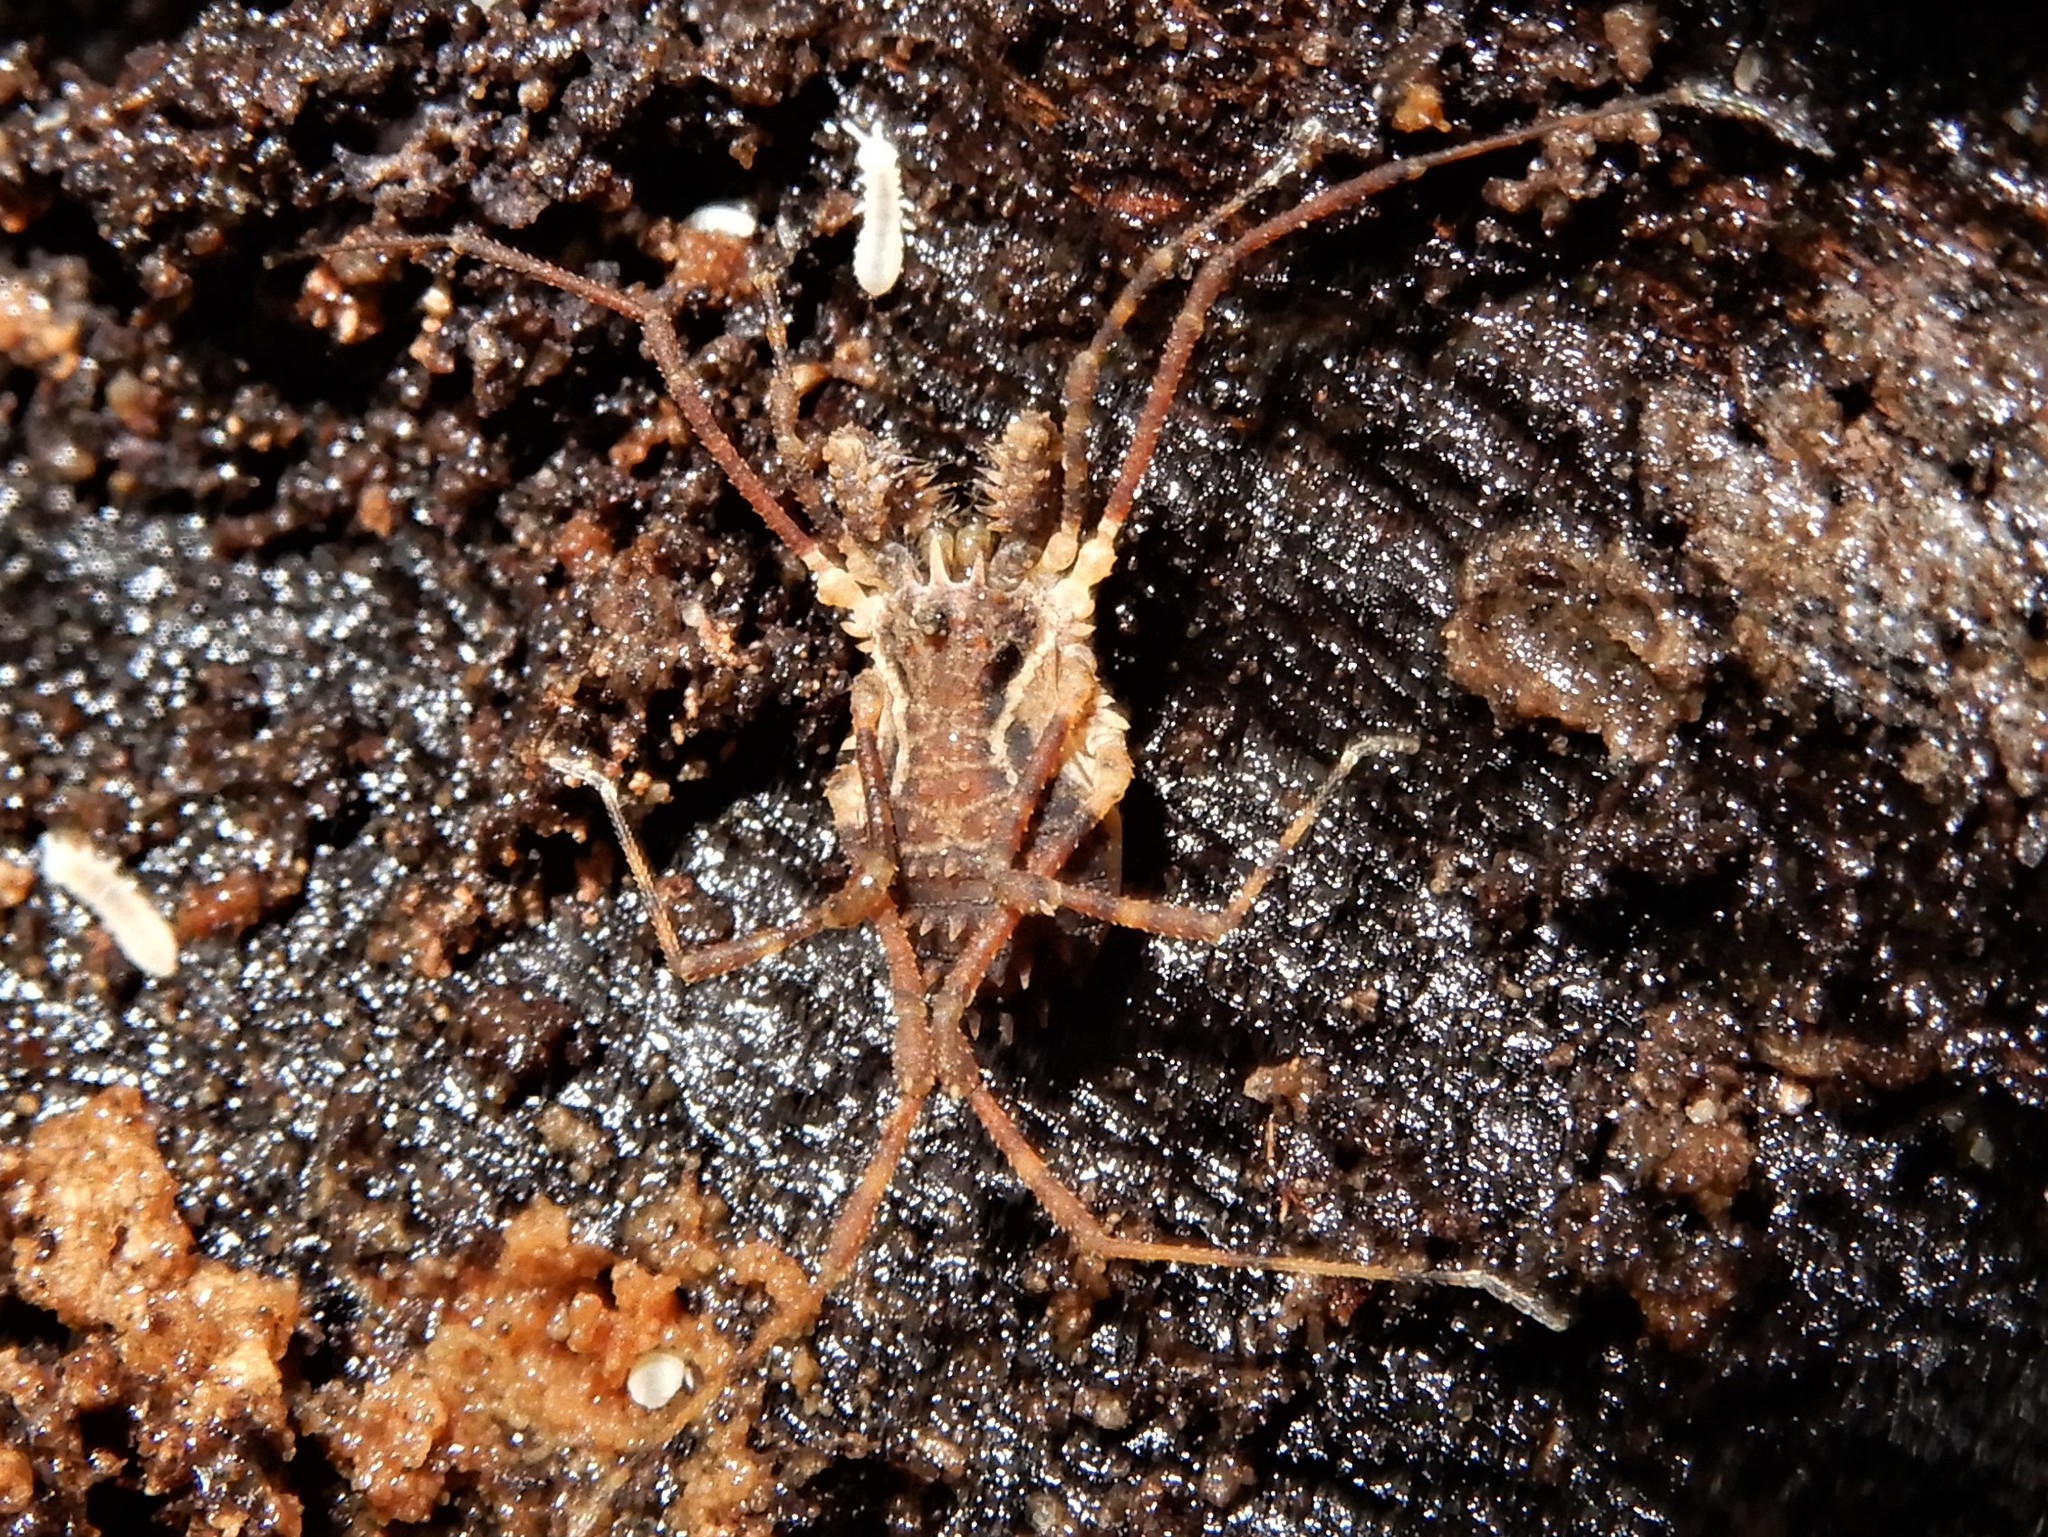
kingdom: Animalia
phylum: Arthropoda
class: Arachnida
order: Opiliones
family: Triaenonychidae
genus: Algidia
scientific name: Algidia chiltoni
